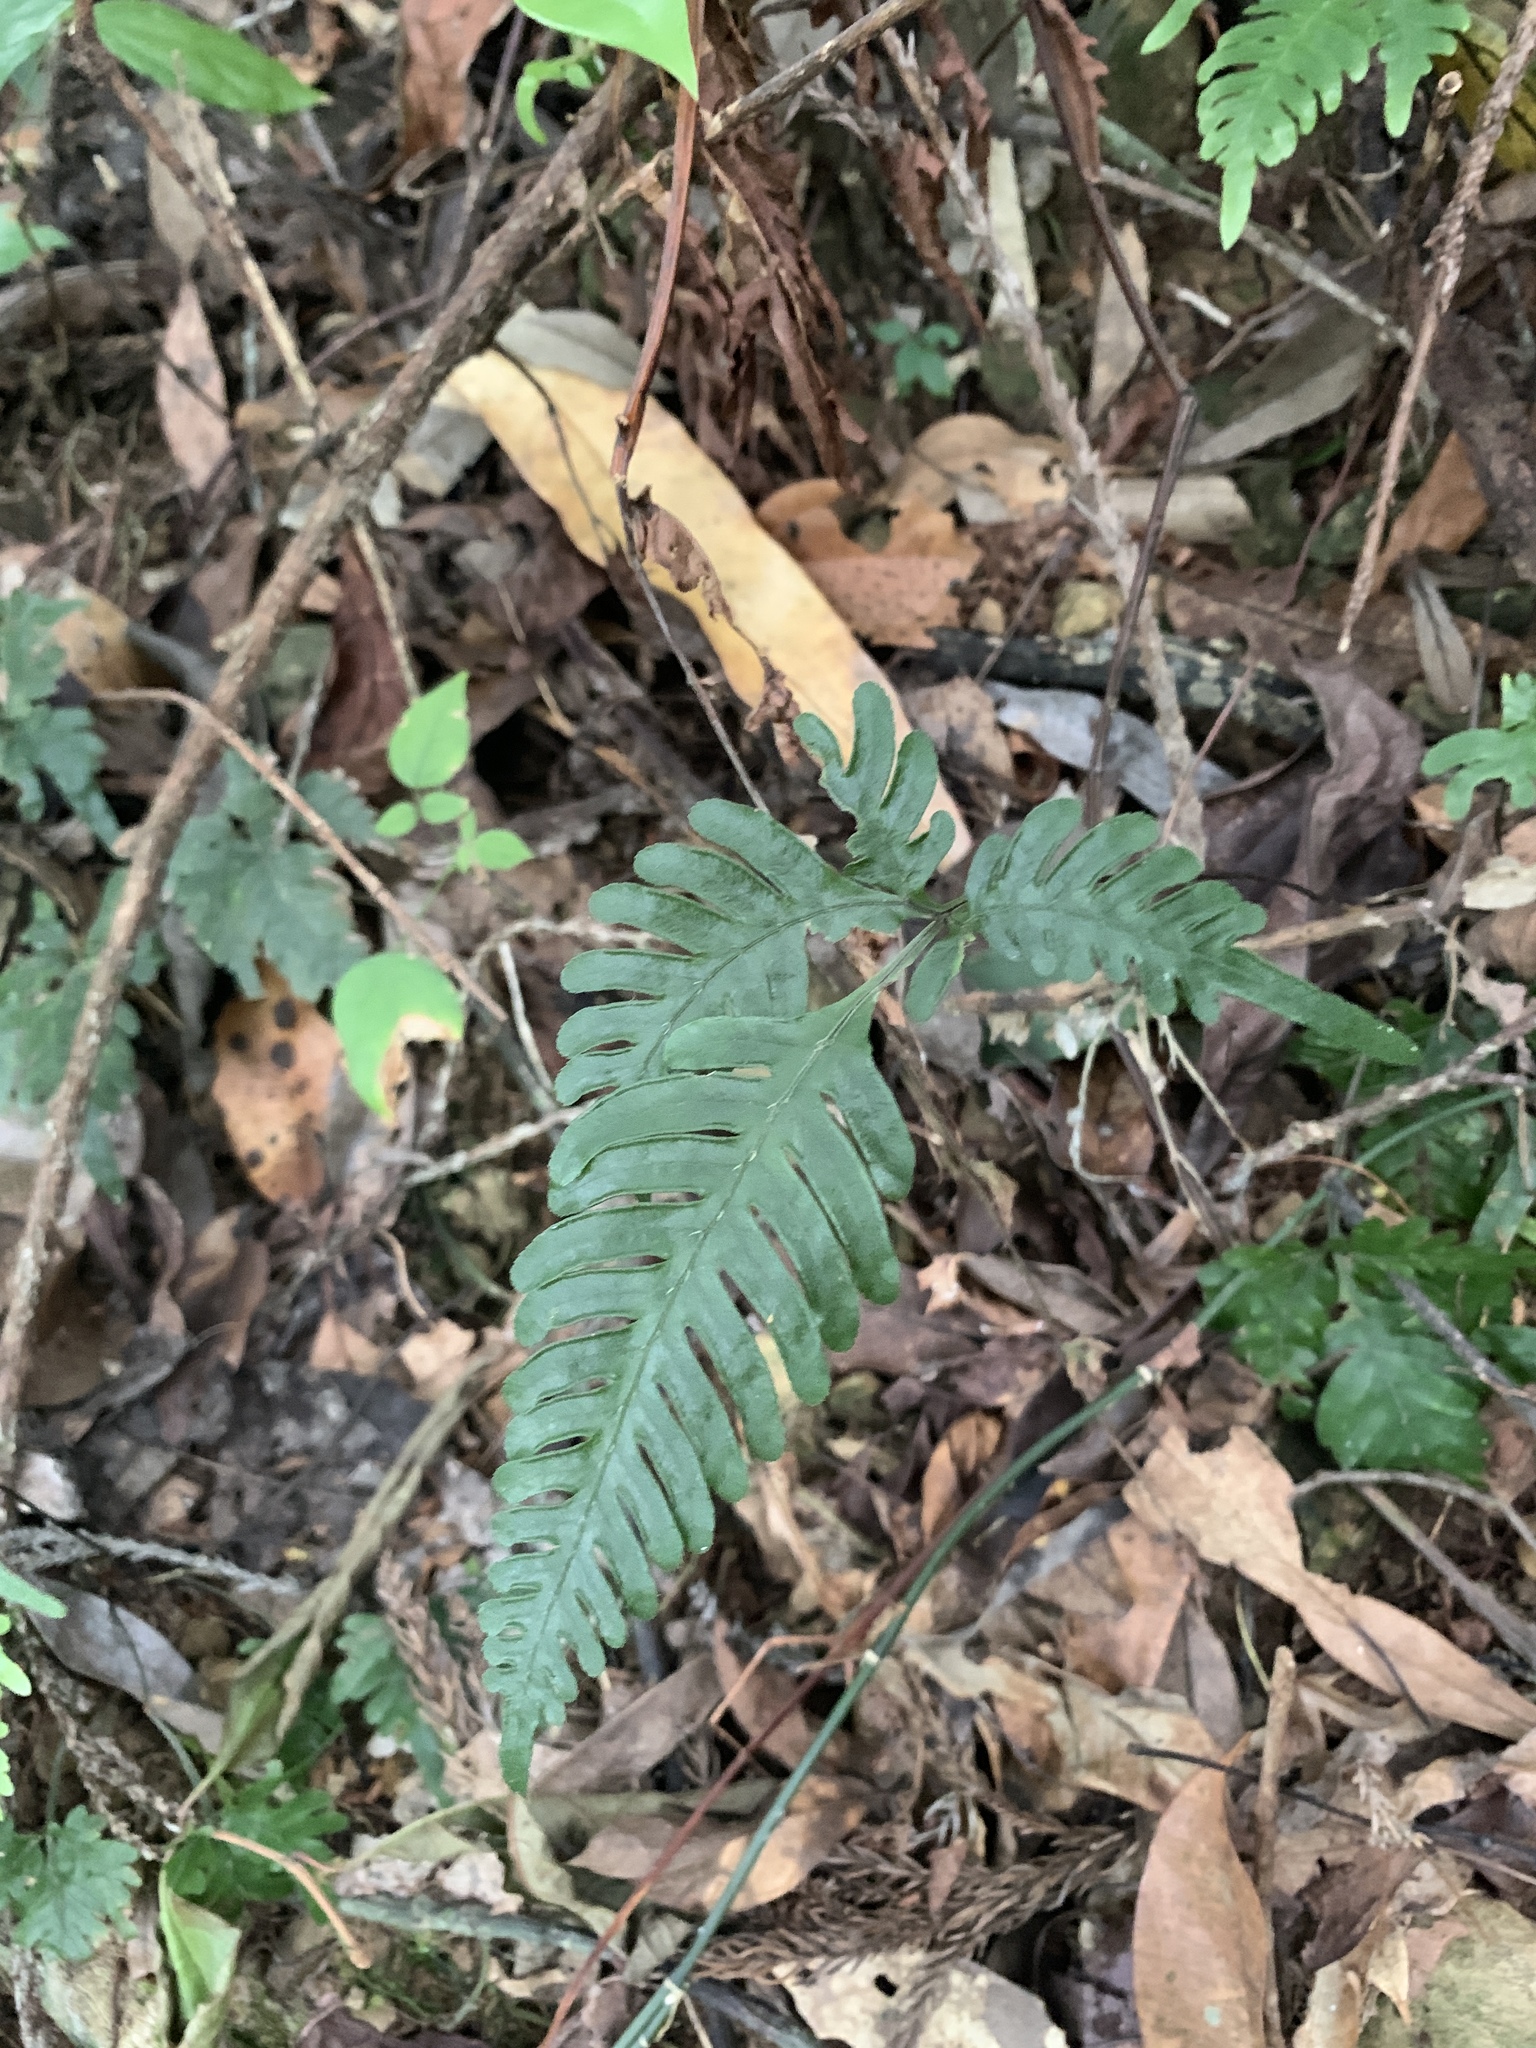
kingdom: Plantae
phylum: Tracheophyta
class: Polypodiopsida
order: Polypodiales
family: Pteridaceae
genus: Pteris
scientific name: Pteris grevilleana
